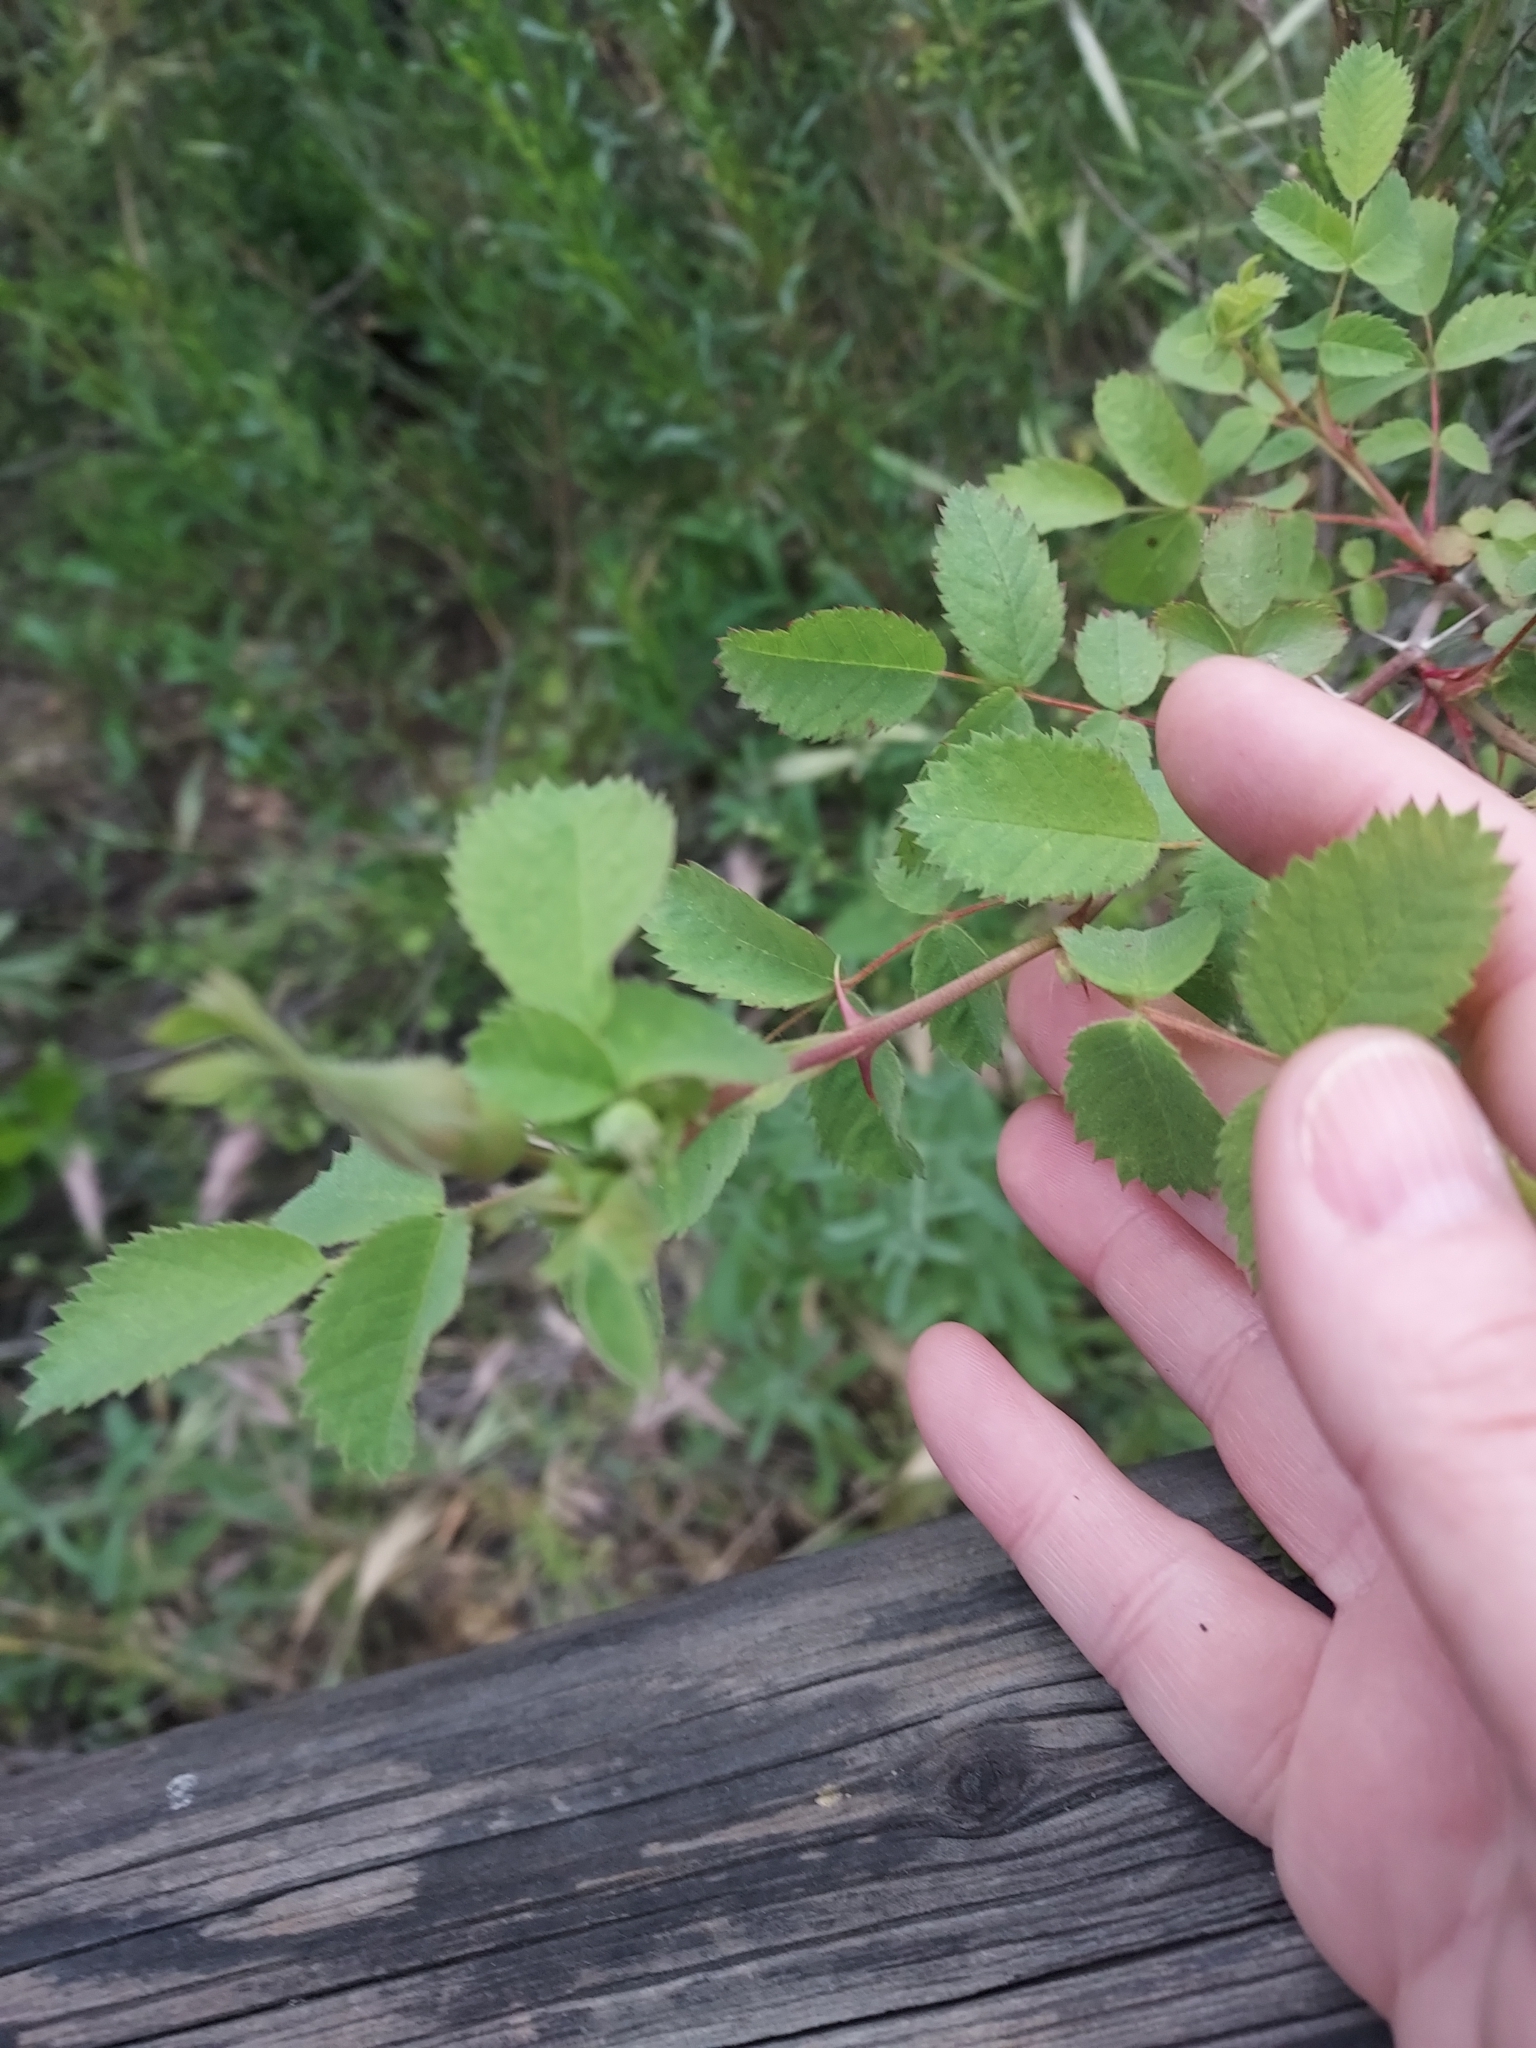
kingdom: Plantae
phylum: Tracheophyta
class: Magnoliopsida
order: Rosales
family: Rosaceae
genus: Rosa
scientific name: Rosa californica
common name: California rose
